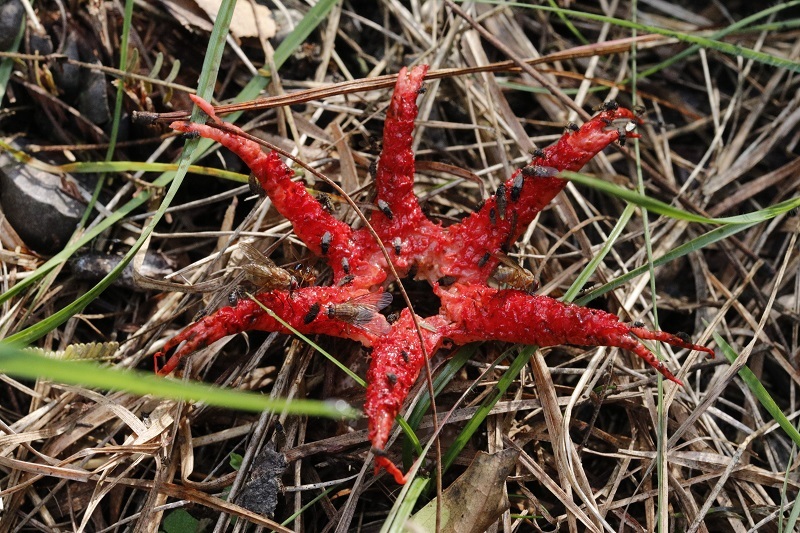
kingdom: Fungi
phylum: Basidiomycota
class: Agaricomycetes
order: Phallales
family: Phallaceae
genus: Aseroe
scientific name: Aseroe rubra
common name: Starfish fungus
